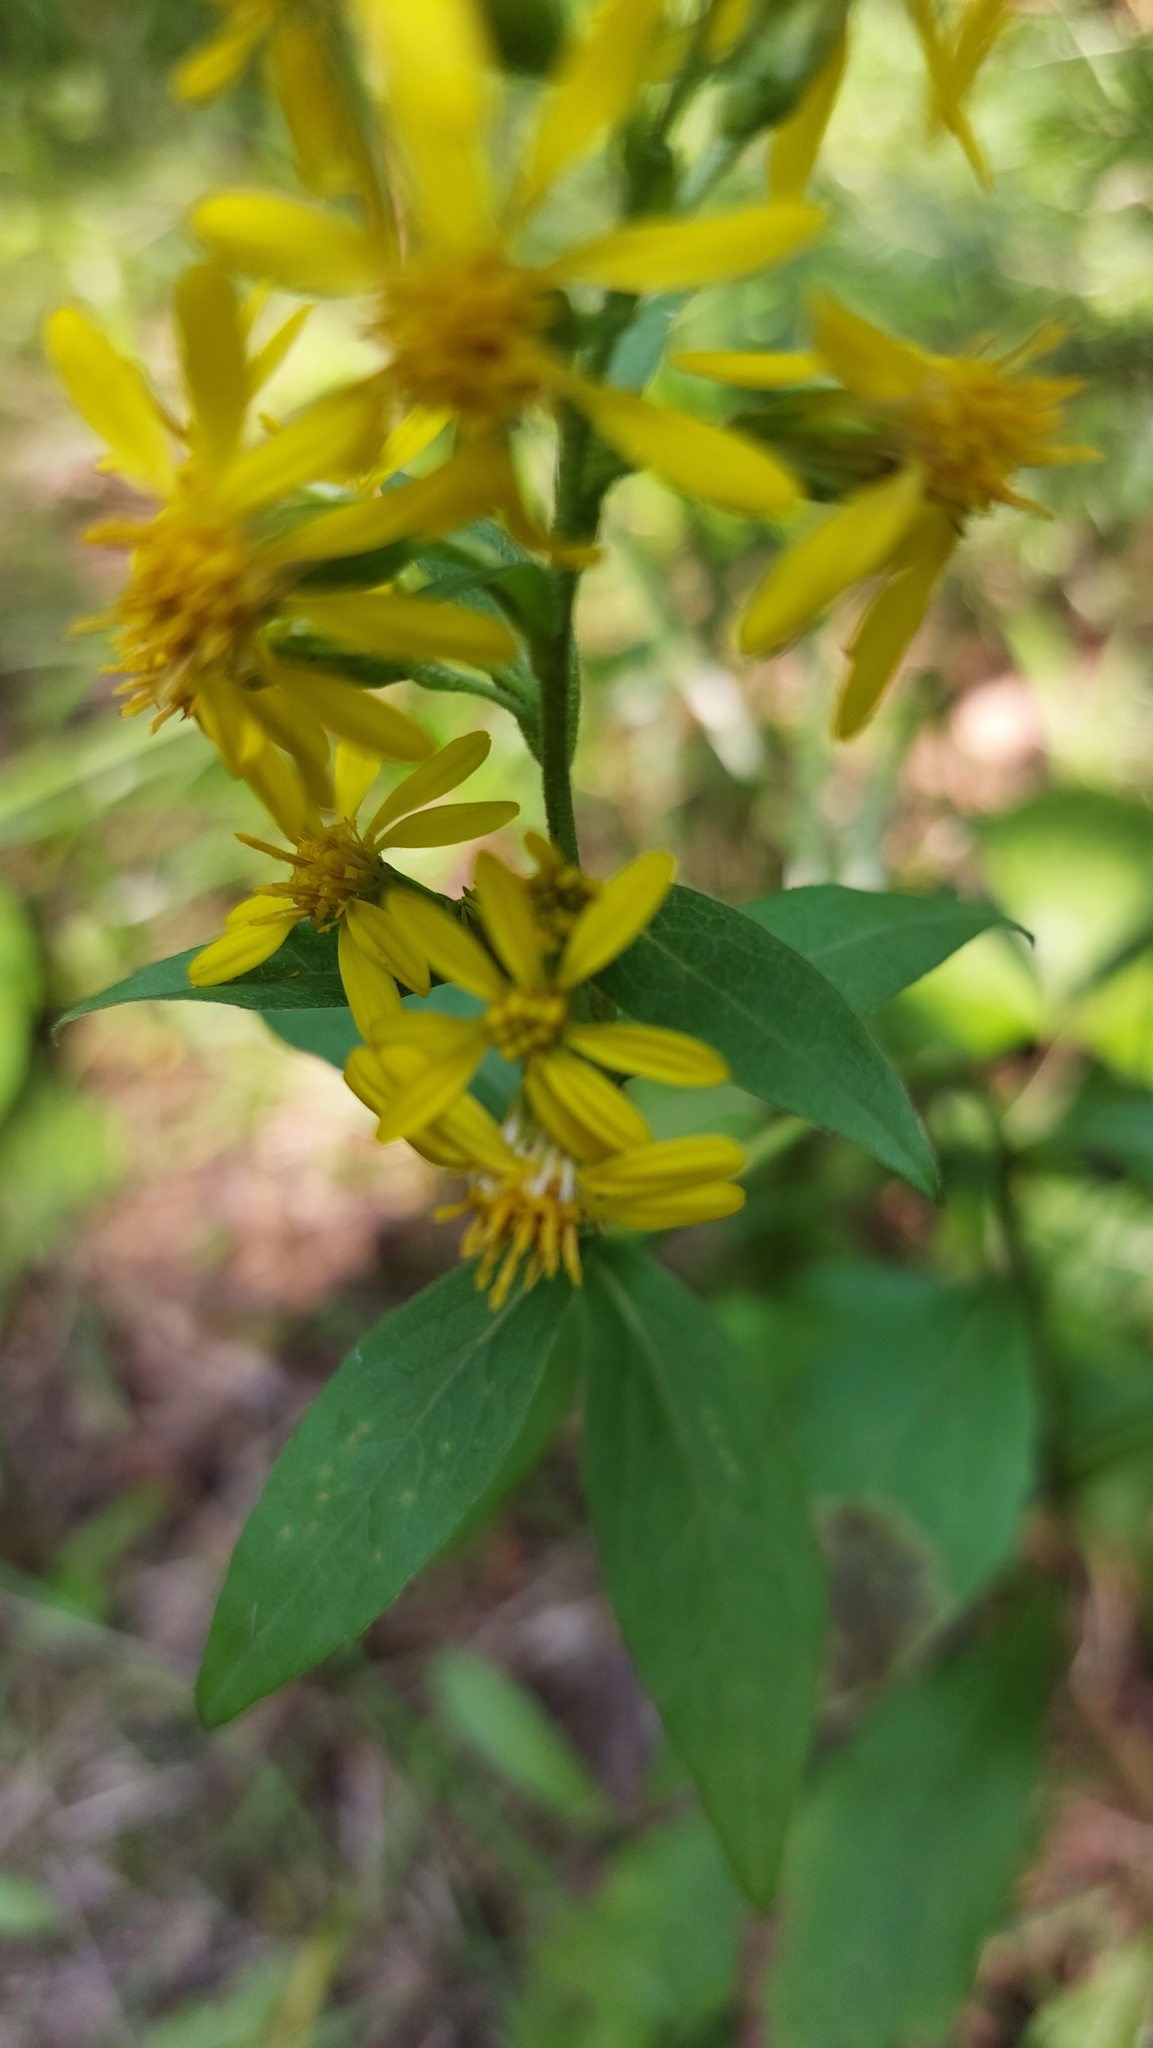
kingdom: Plantae
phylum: Tracheophyta
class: Magnoliopsida
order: Asterales
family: Asteraceae
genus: Solidago
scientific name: Solidago virgaurea
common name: Goldenrod
